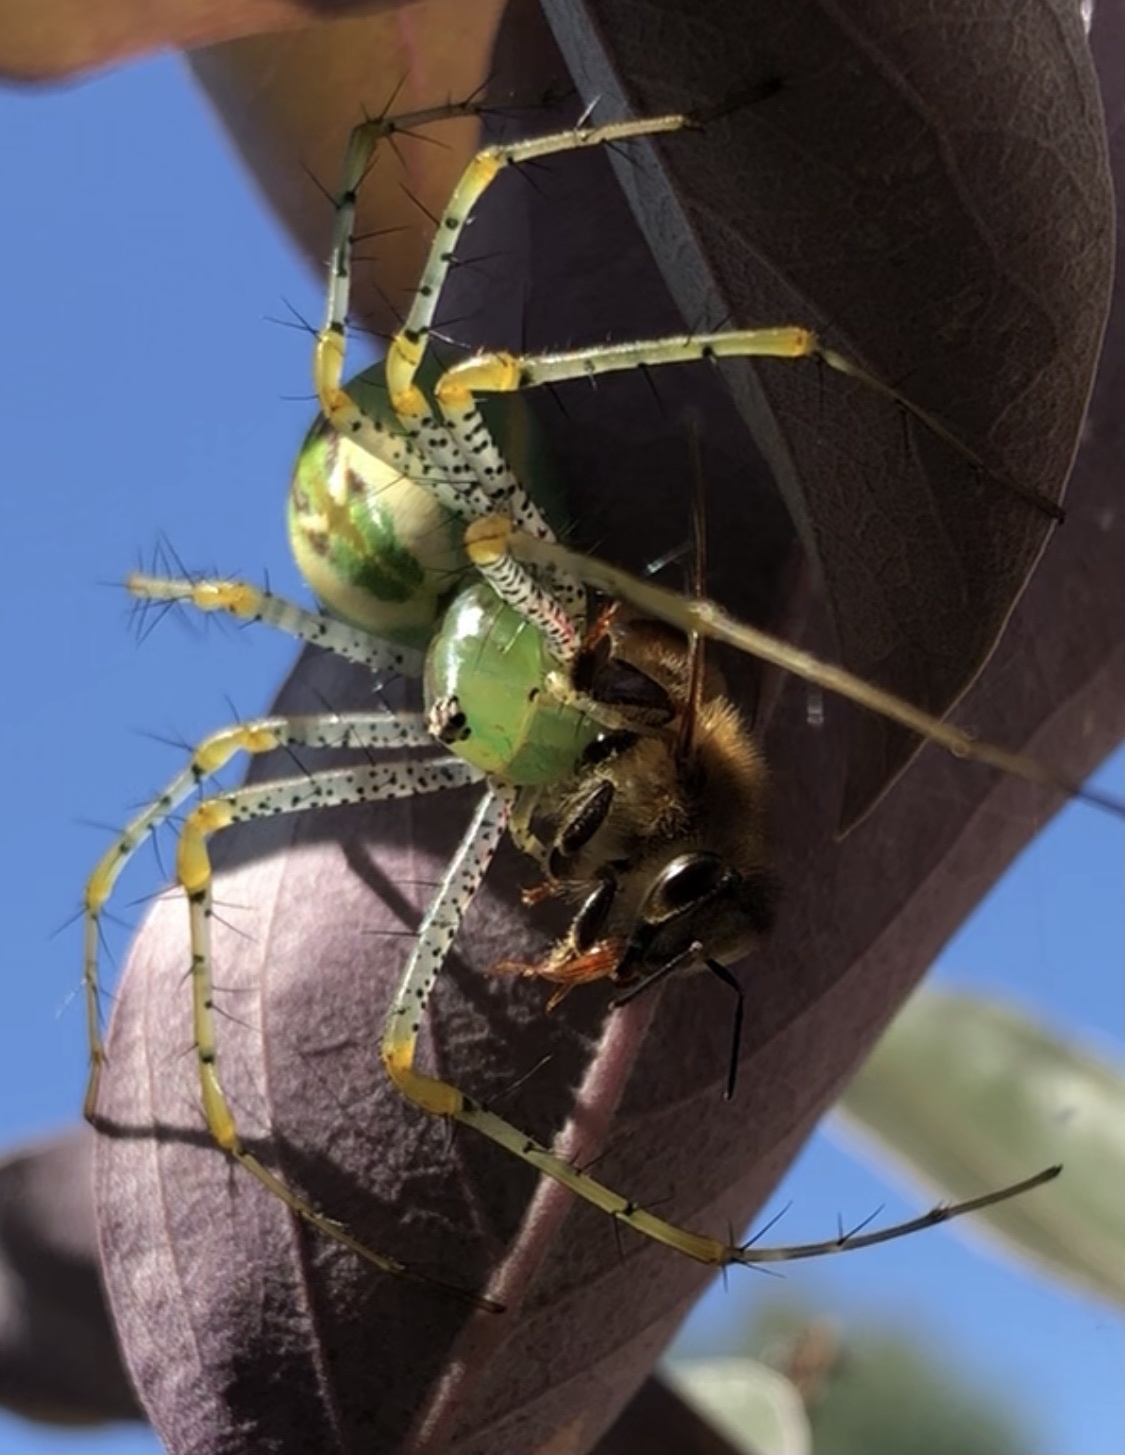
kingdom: Animalia
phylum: Arthropoda
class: Arachnida
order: Araneae
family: Oxyopidae
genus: Peucetia
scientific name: Peucetia viridans
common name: Lynx spiders
